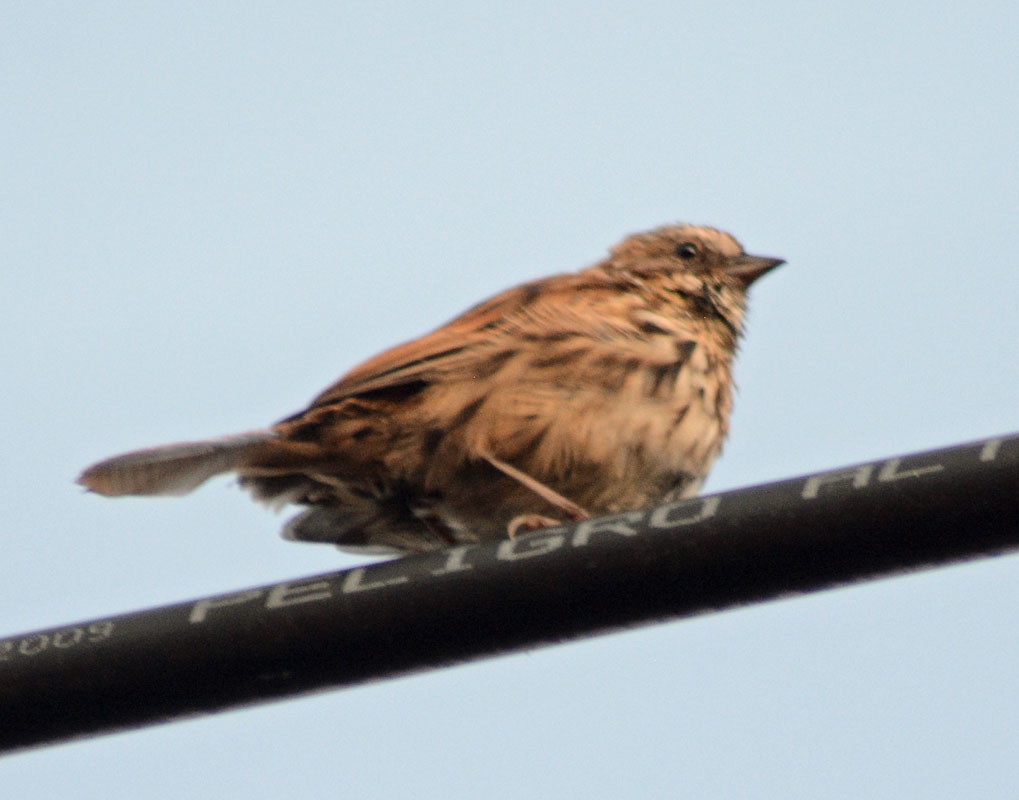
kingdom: Animalia
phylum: Chordata
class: Aves
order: Passeriformes
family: Passerellidae
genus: Melospiza
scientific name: Melospiza melodia
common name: Song sparrow
